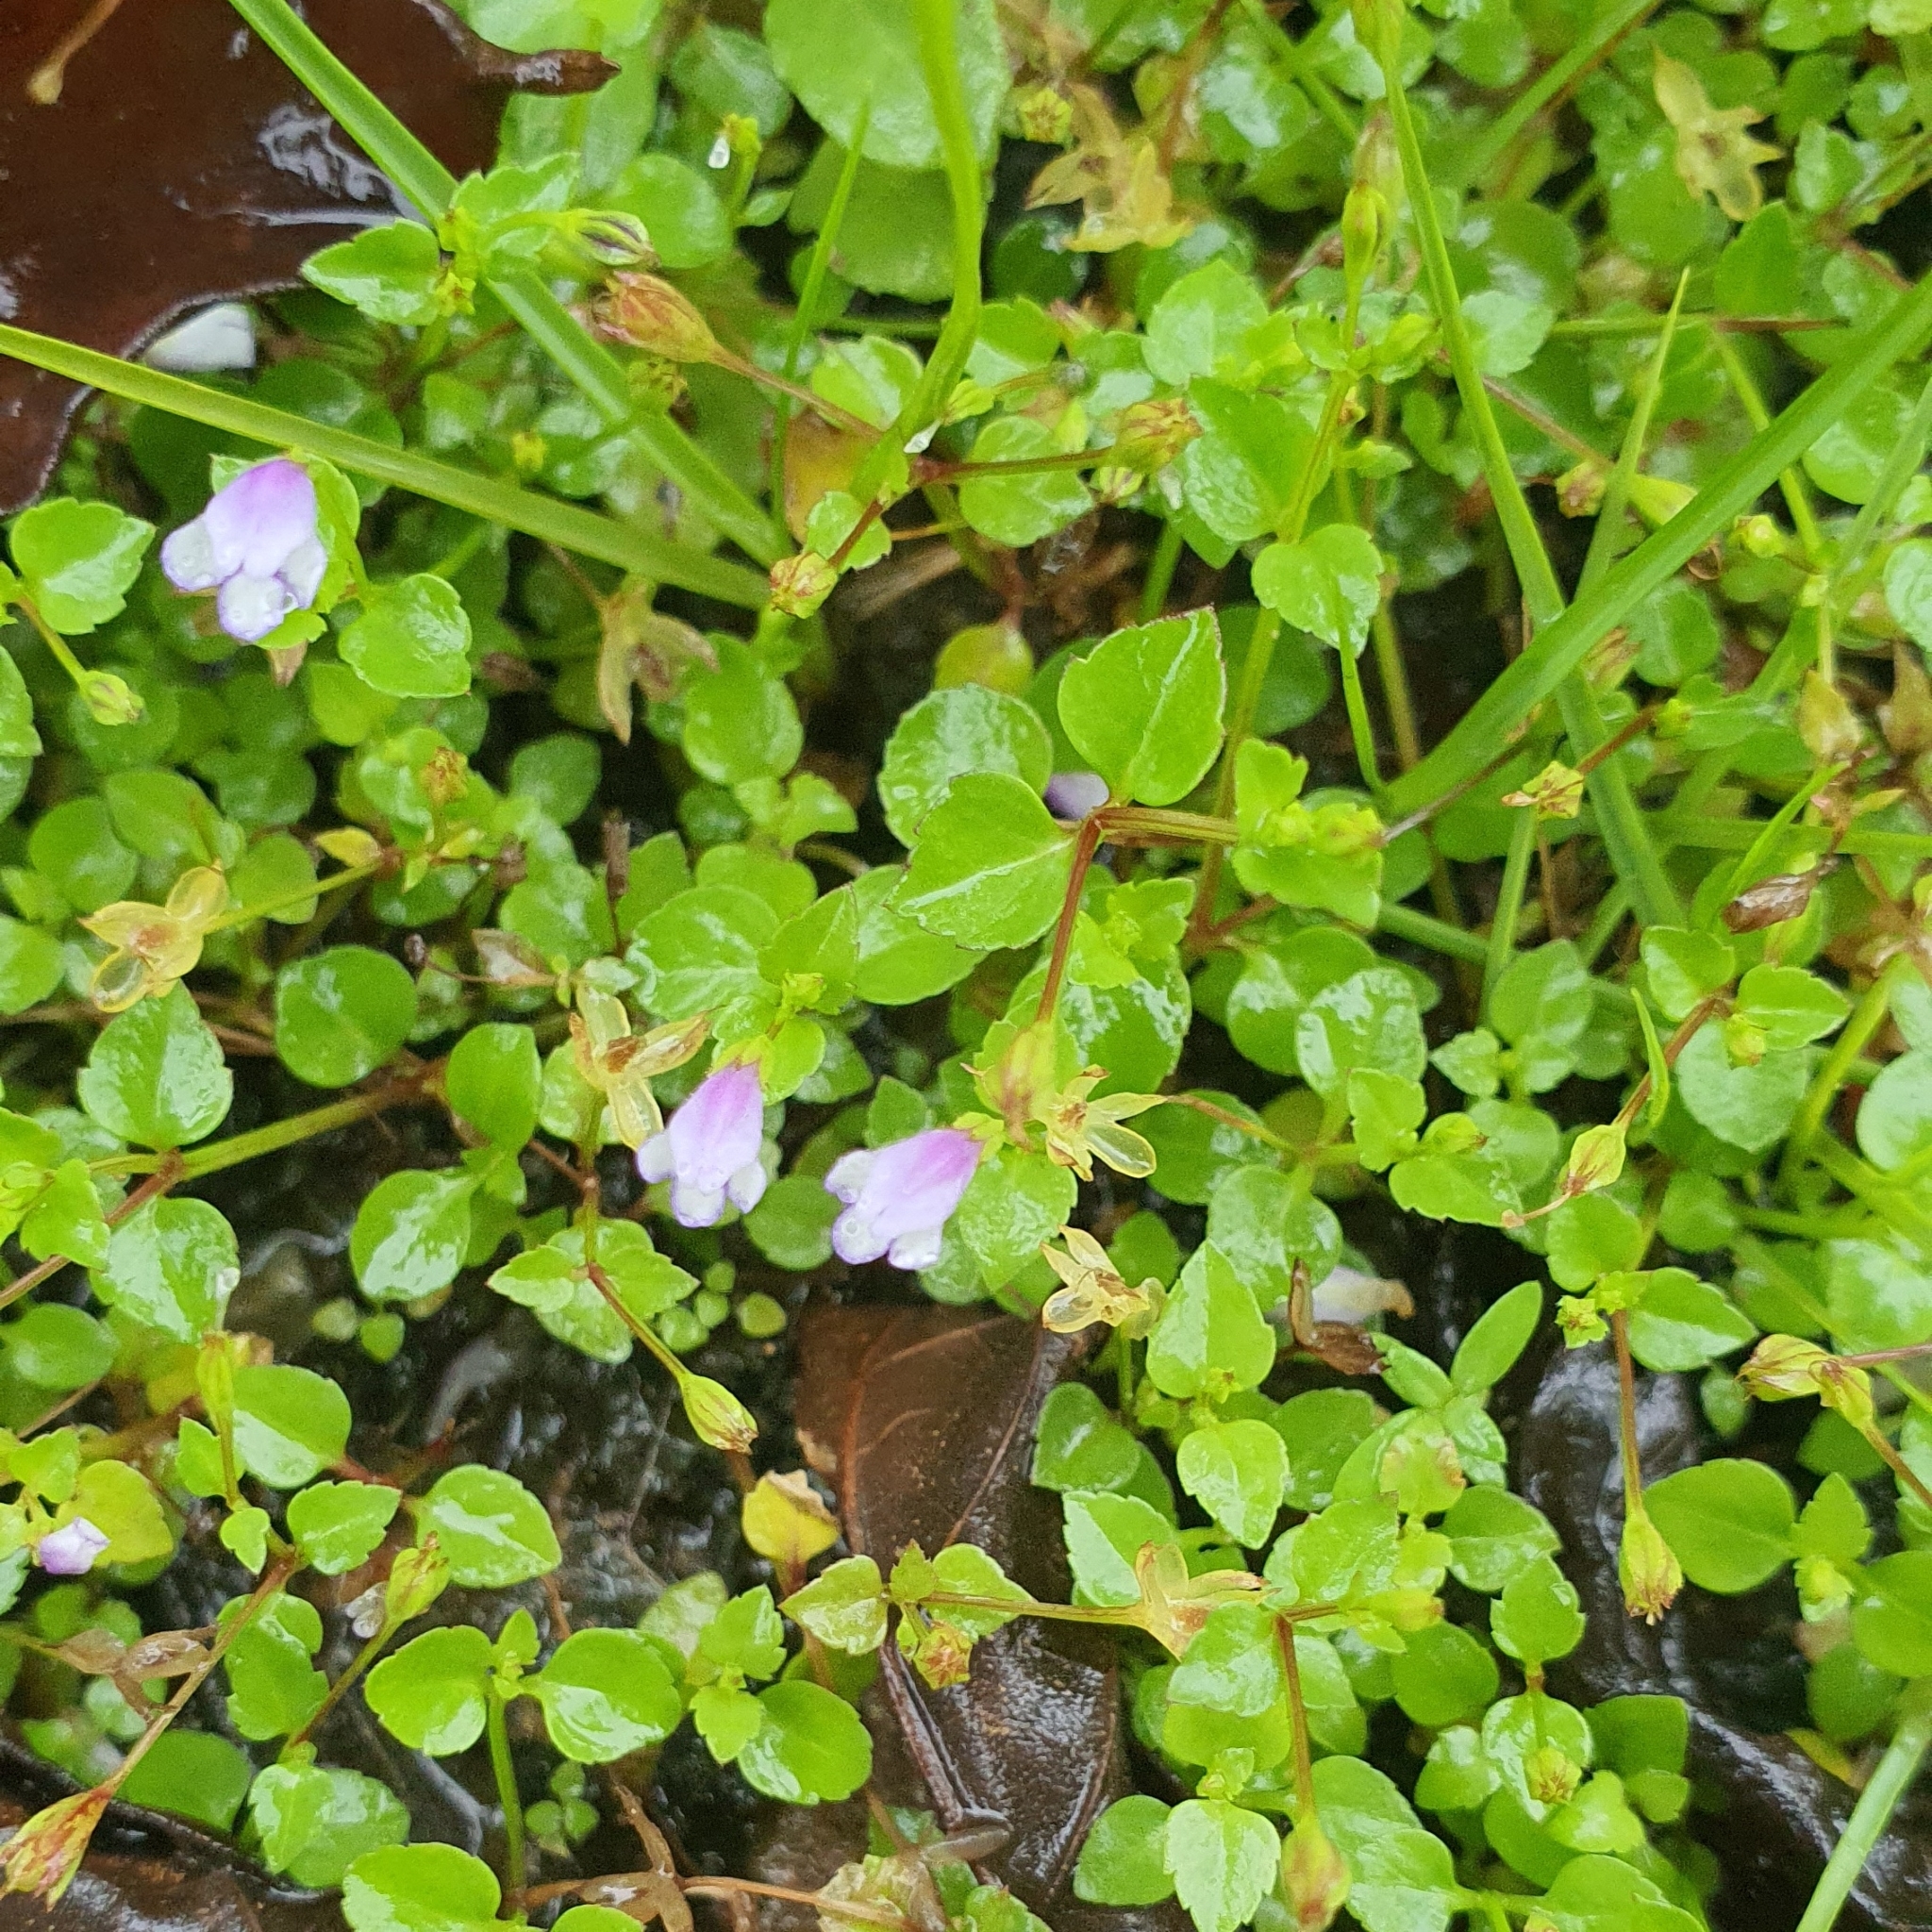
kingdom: Plantae
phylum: Tracheophyta
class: Magnoliopsida
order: Lamiales
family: Linderniaceae
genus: Torenia
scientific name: Torenia crustacea
